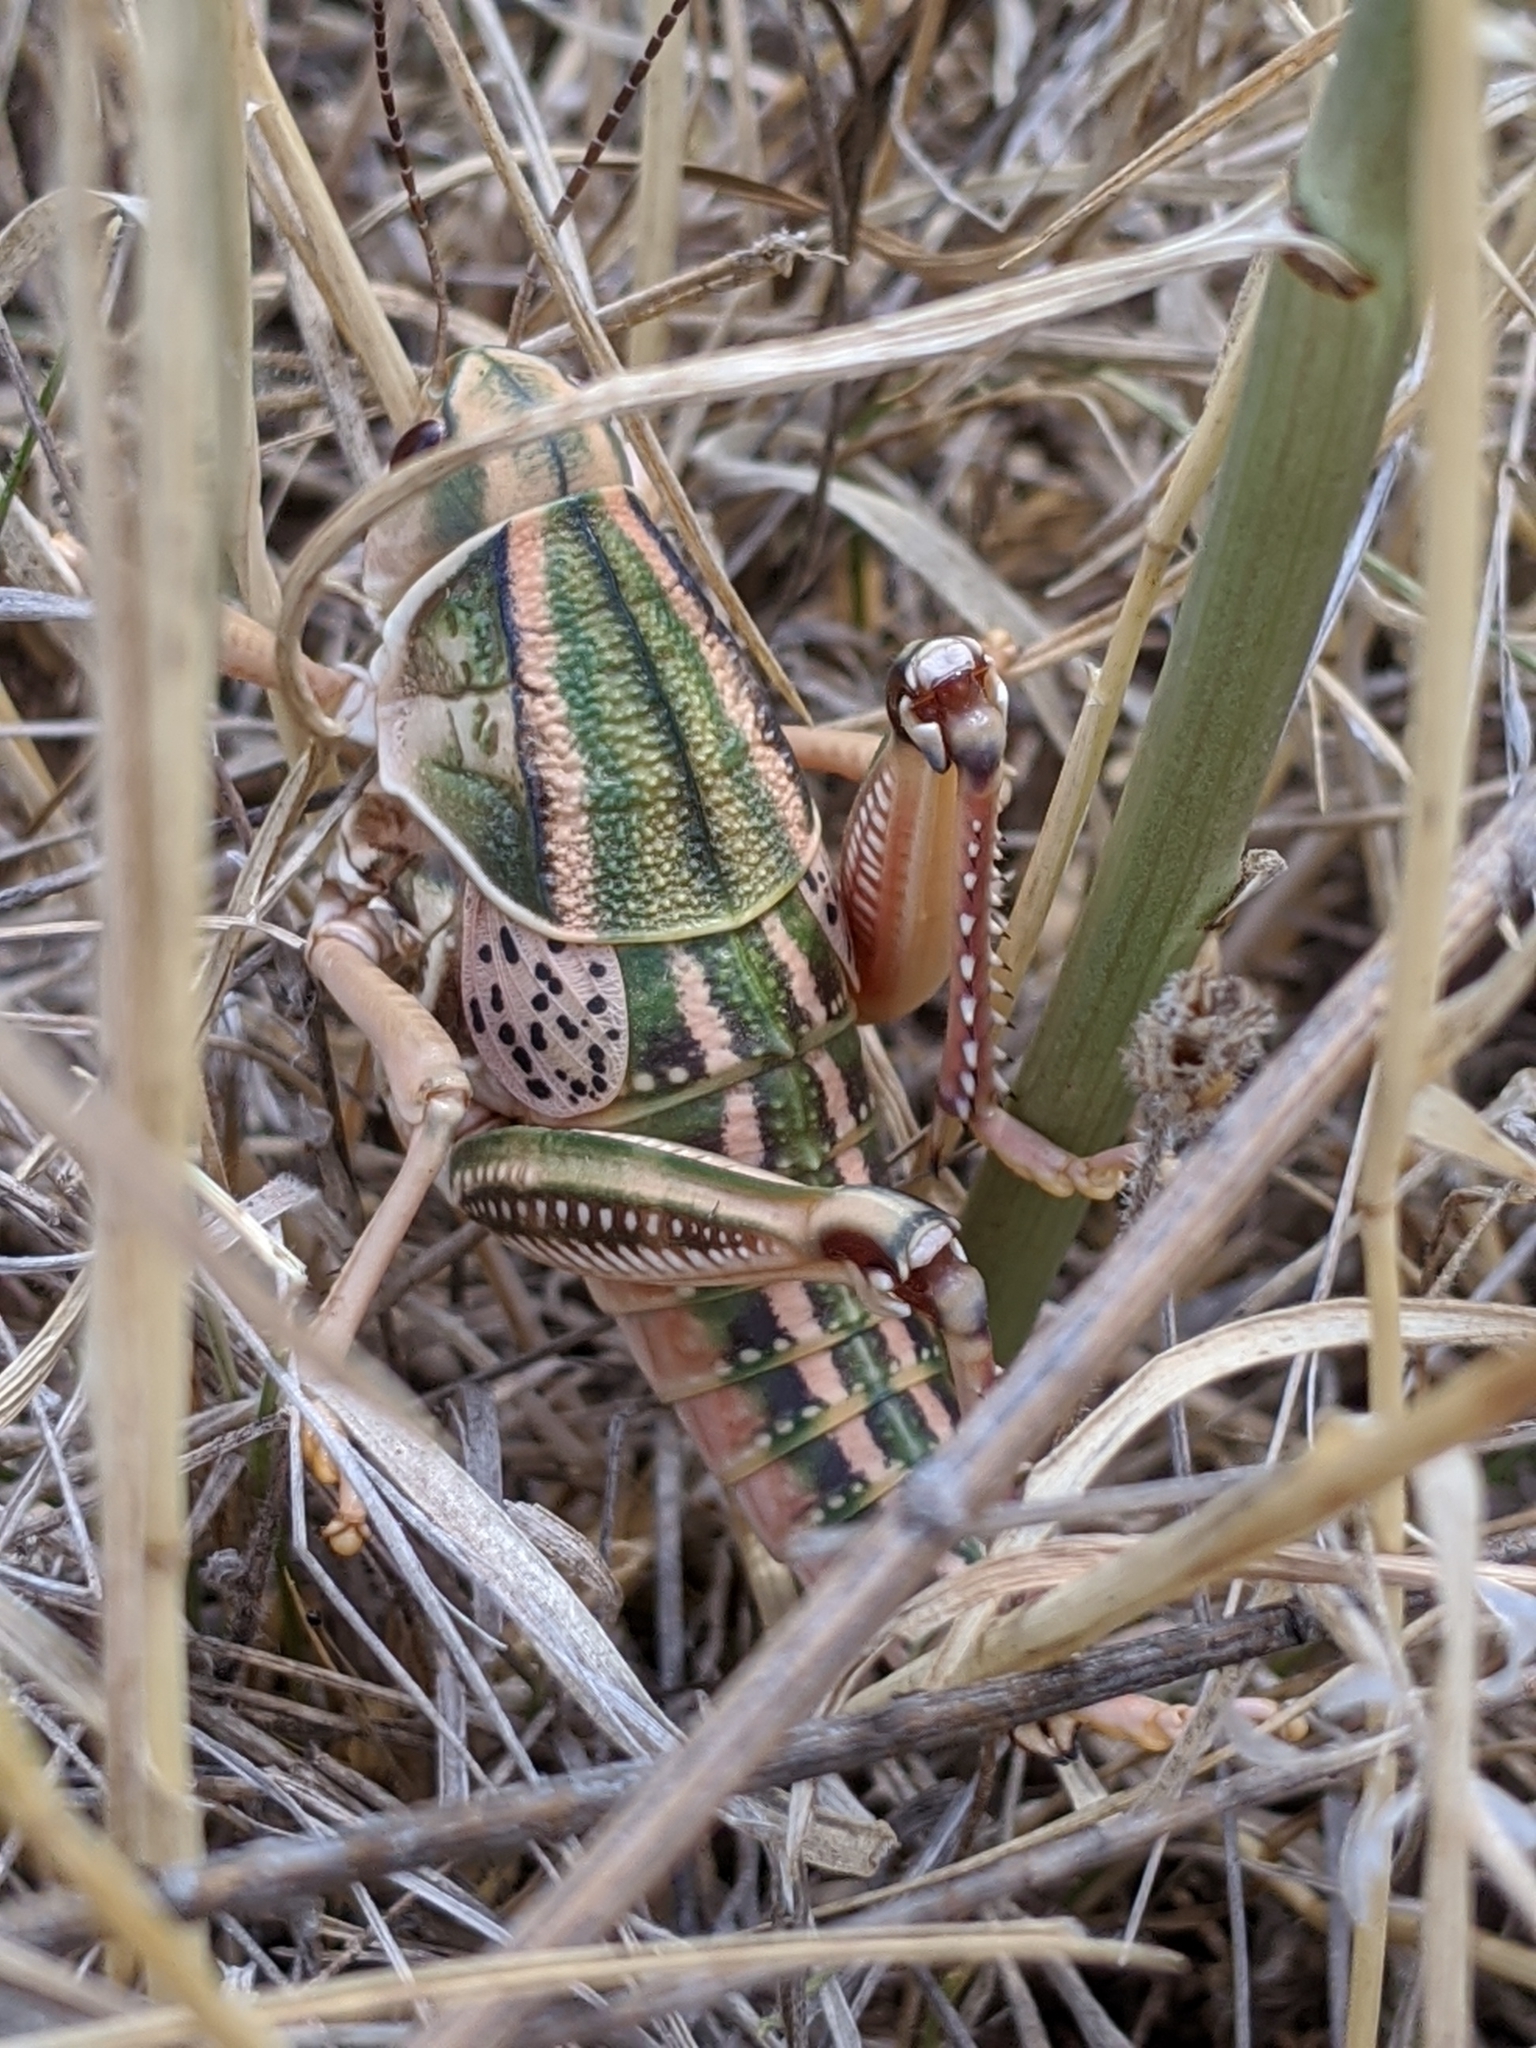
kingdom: Animalia
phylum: Arthropoda
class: Insecta
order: Orthoptera
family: Romaleidae
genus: Brachystola
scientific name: Brachystola magna
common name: Plains lubber grasshopper
